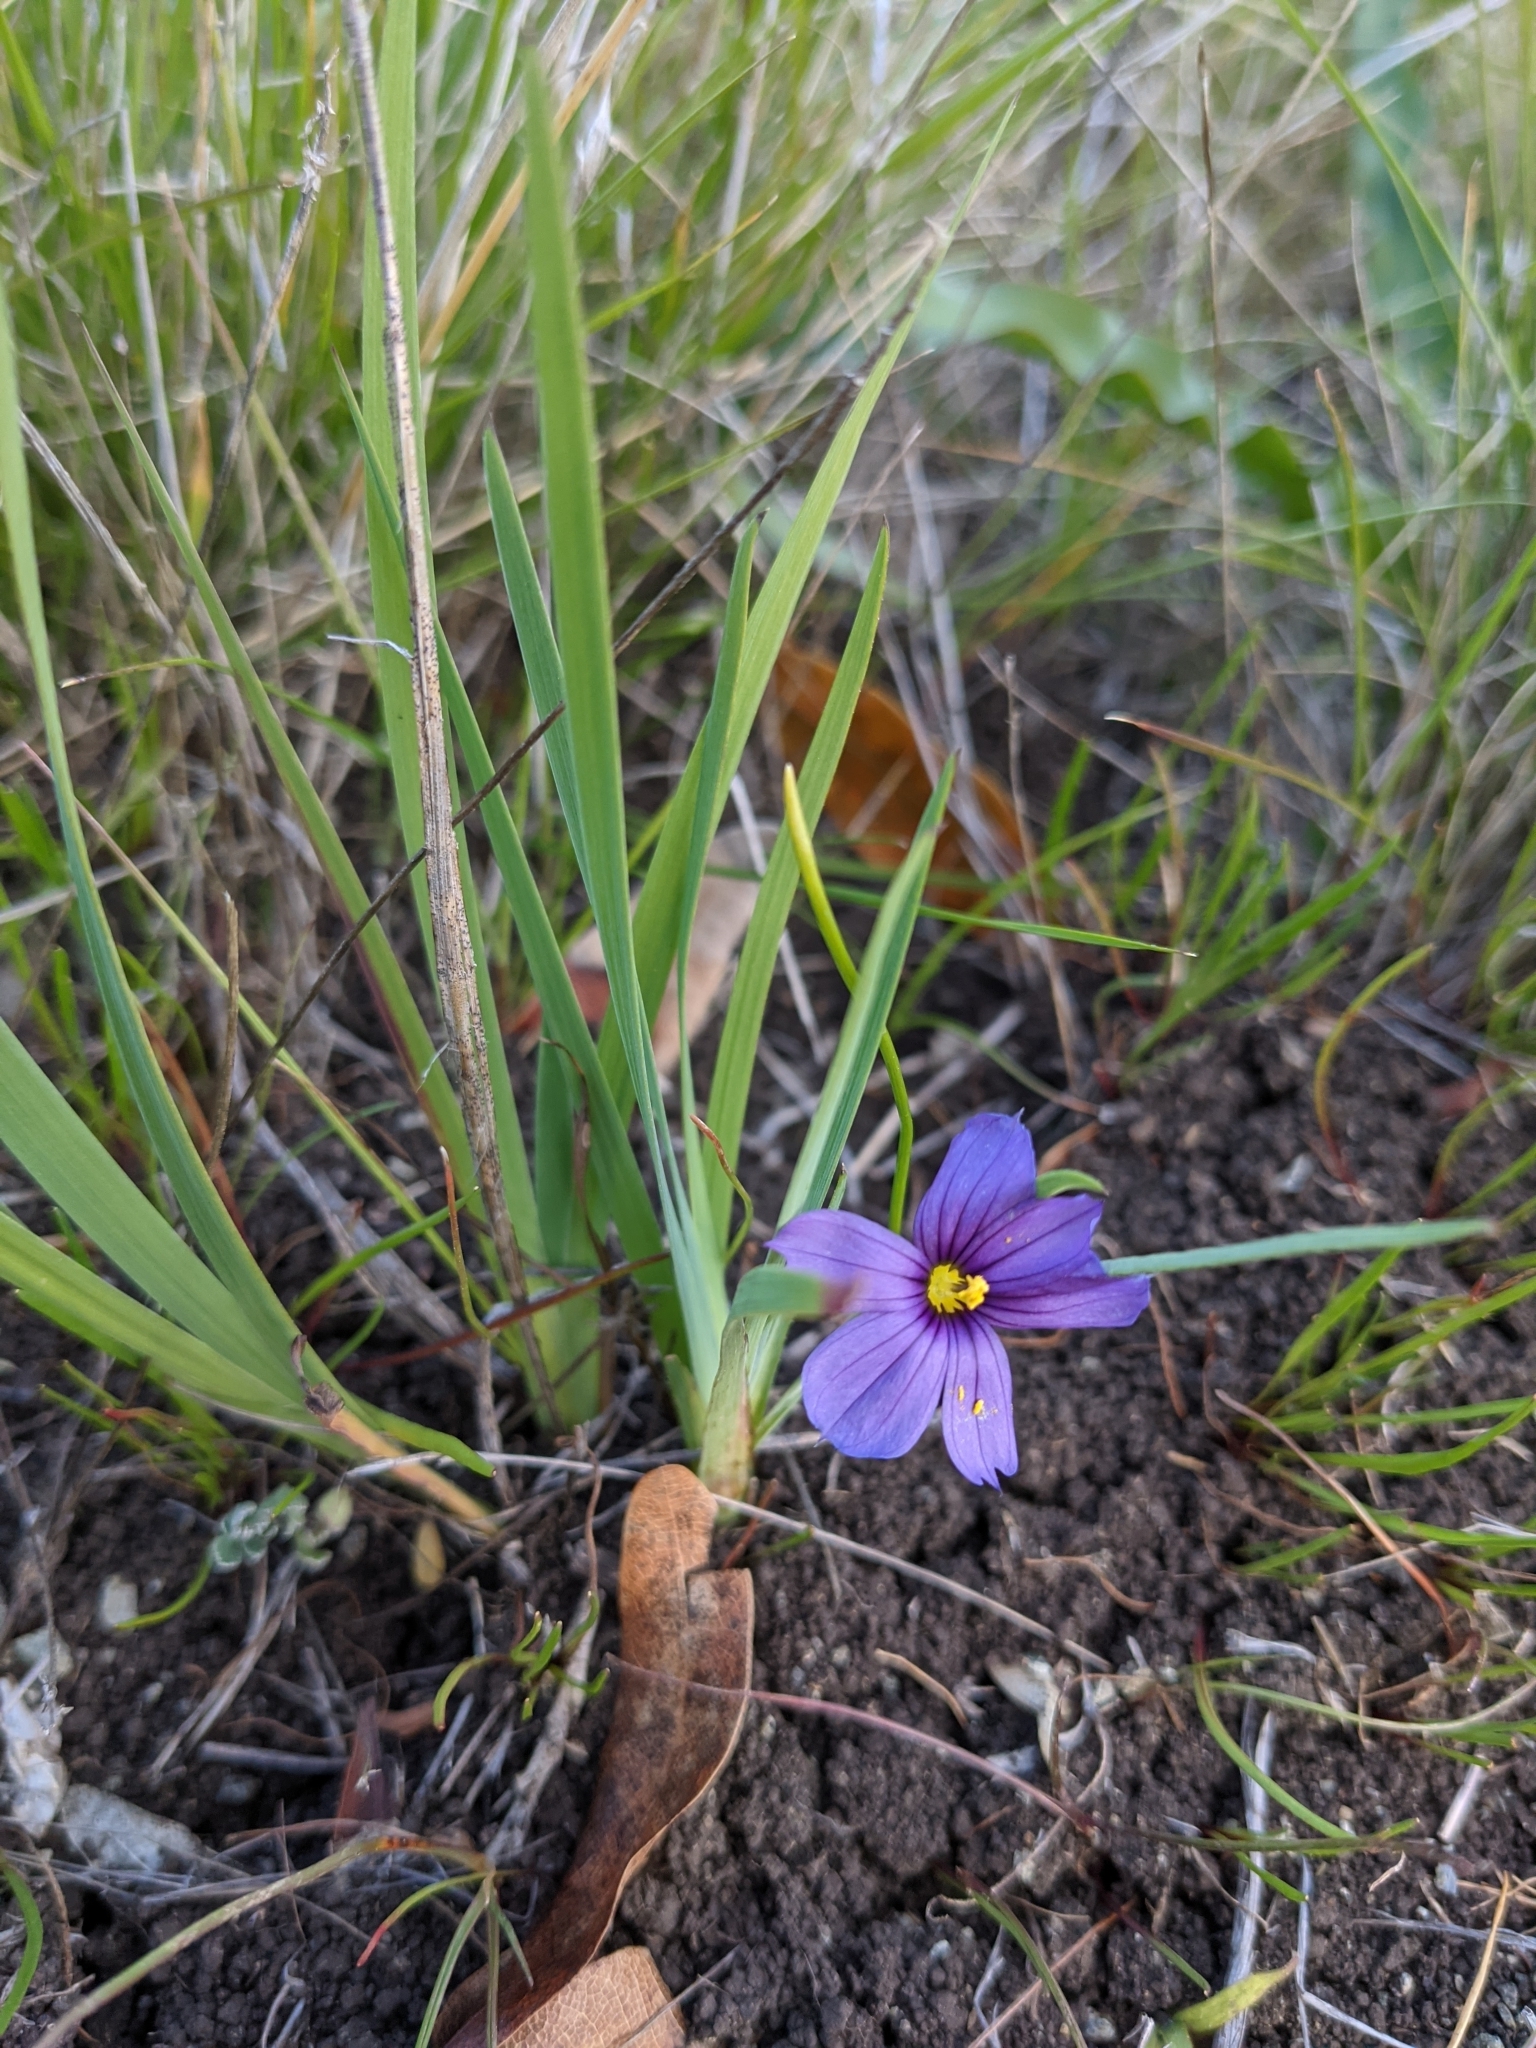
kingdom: Plantae
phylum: Tracheophyta
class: Liliopsida
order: Asparagales
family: Iridaceae
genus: Sisyrinchium
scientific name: Sisyrinchium bellum
